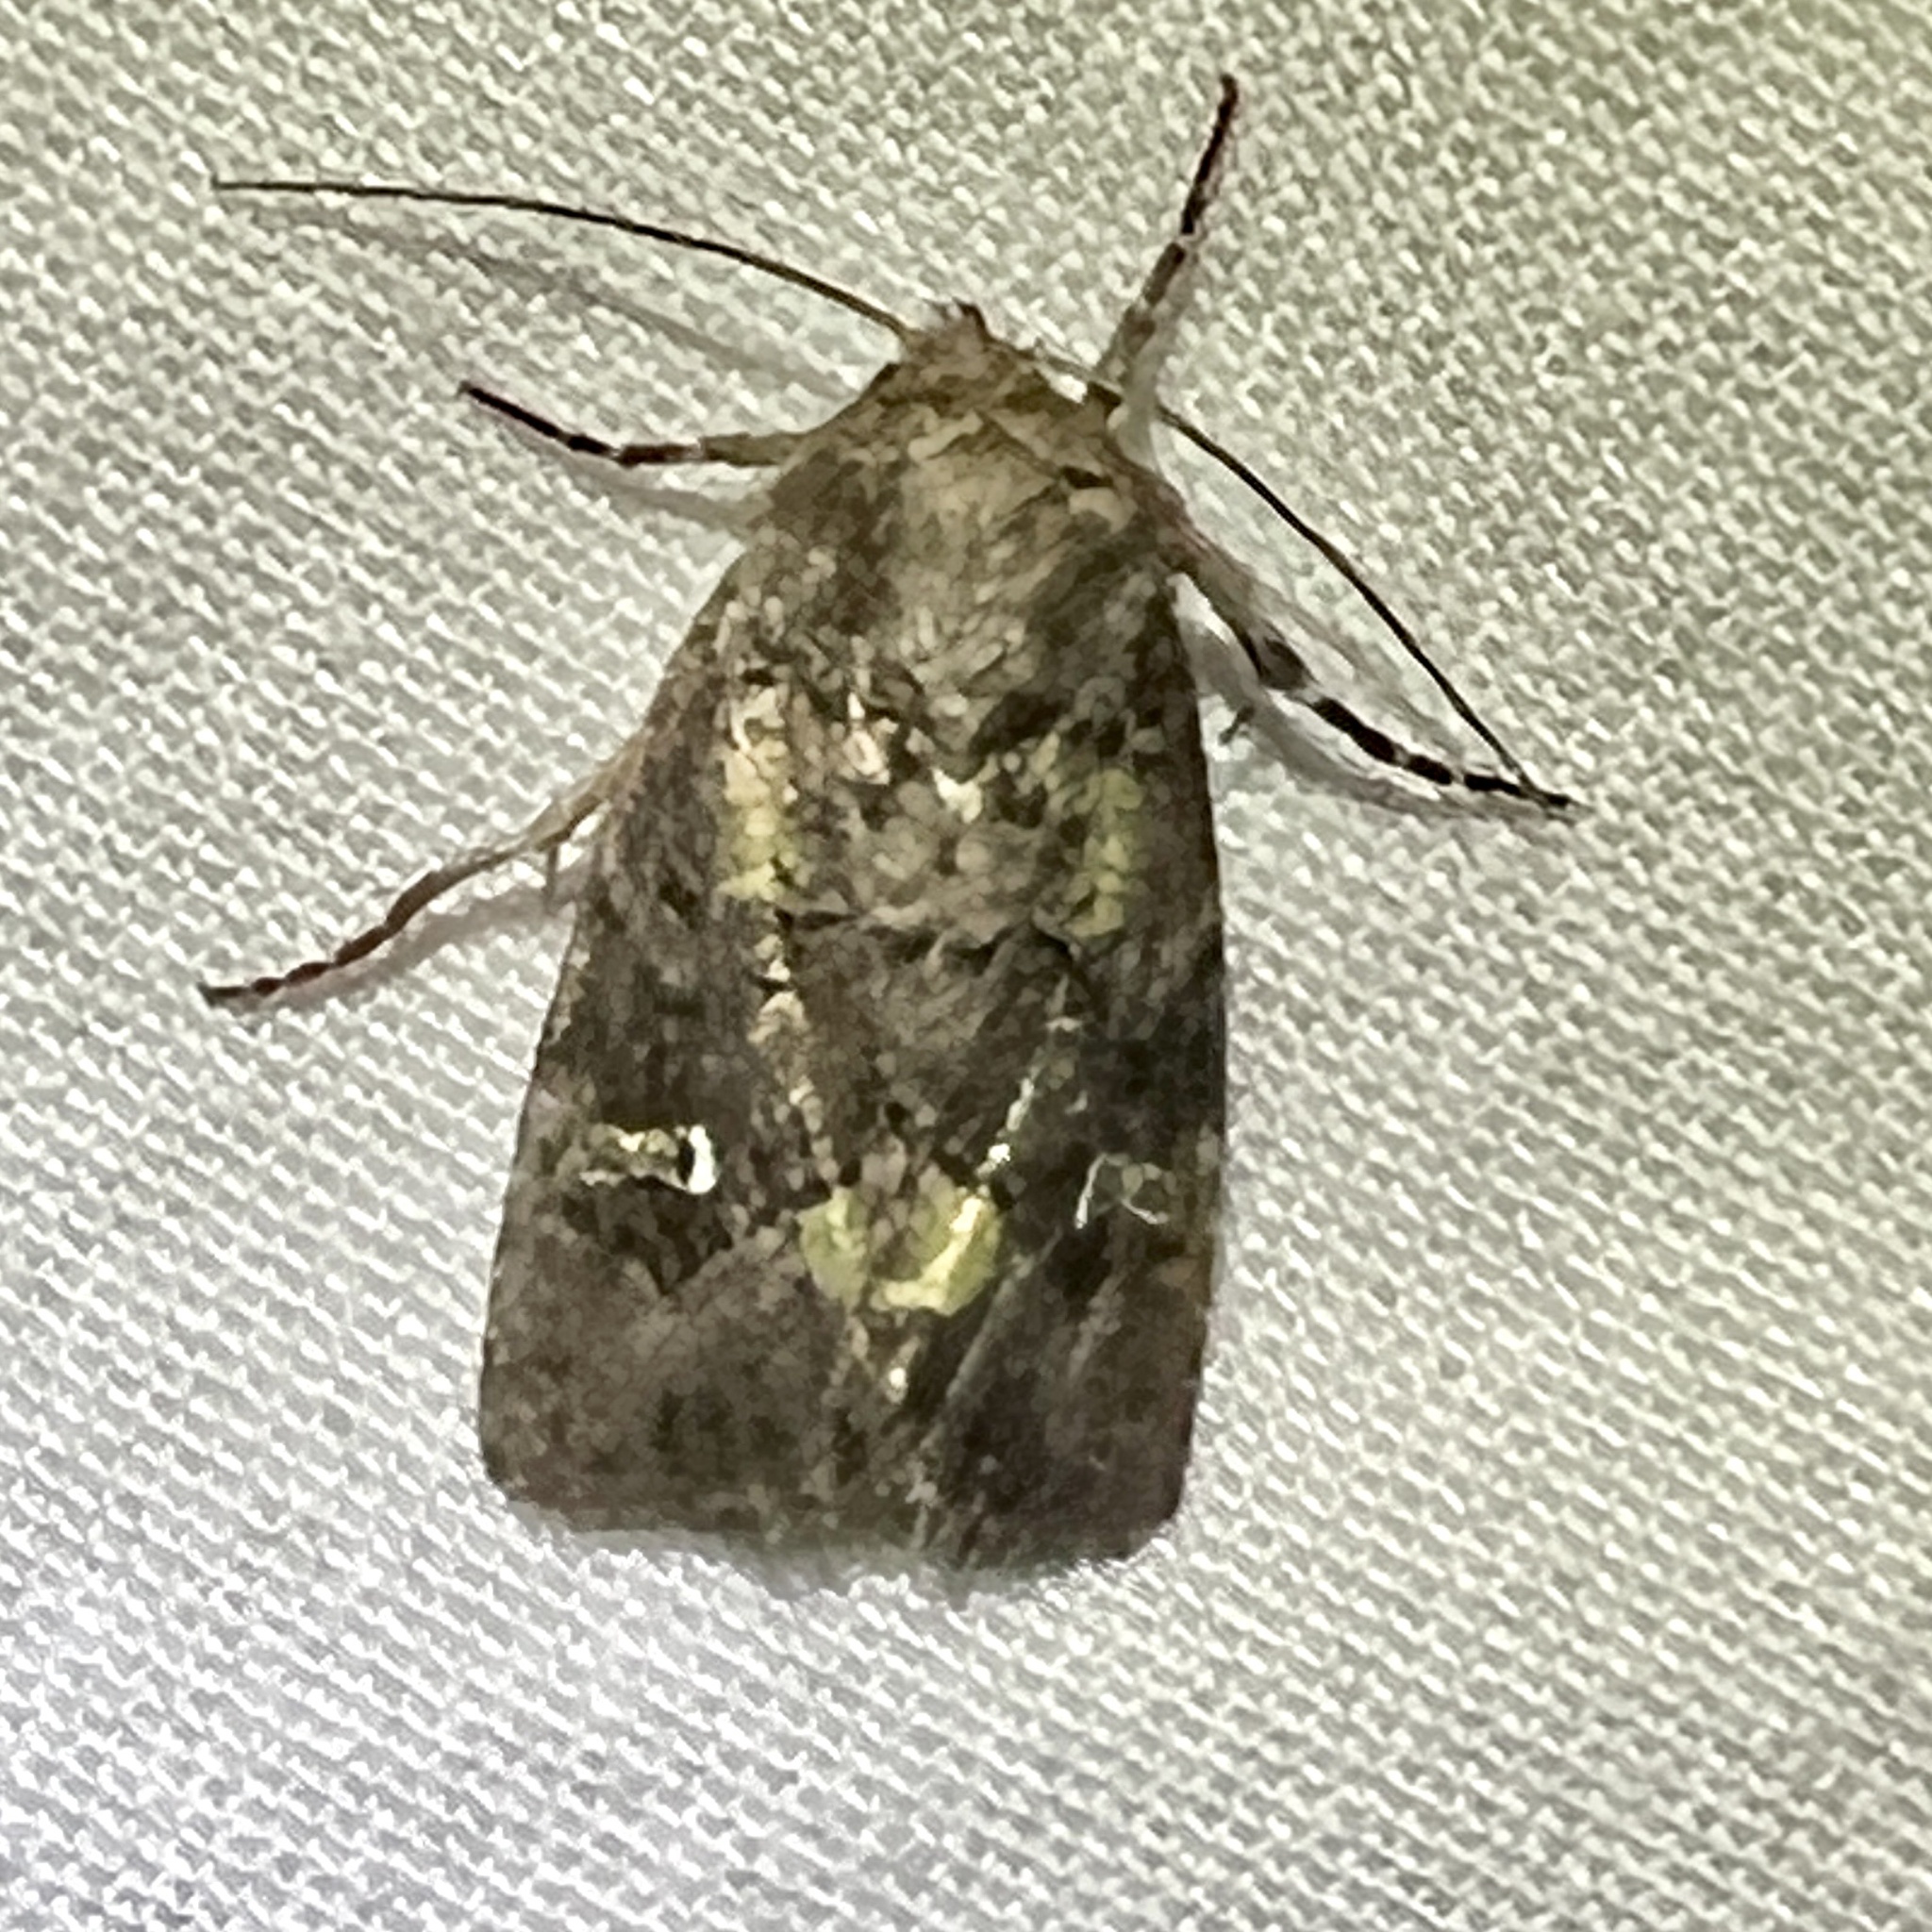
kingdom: Animalia
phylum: Arthropoda
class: Insecta
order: Lepidoptera
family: Noctuidae
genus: Lacinipolia
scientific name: Lacinipolia renigera
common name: Kidney-spotted minor
